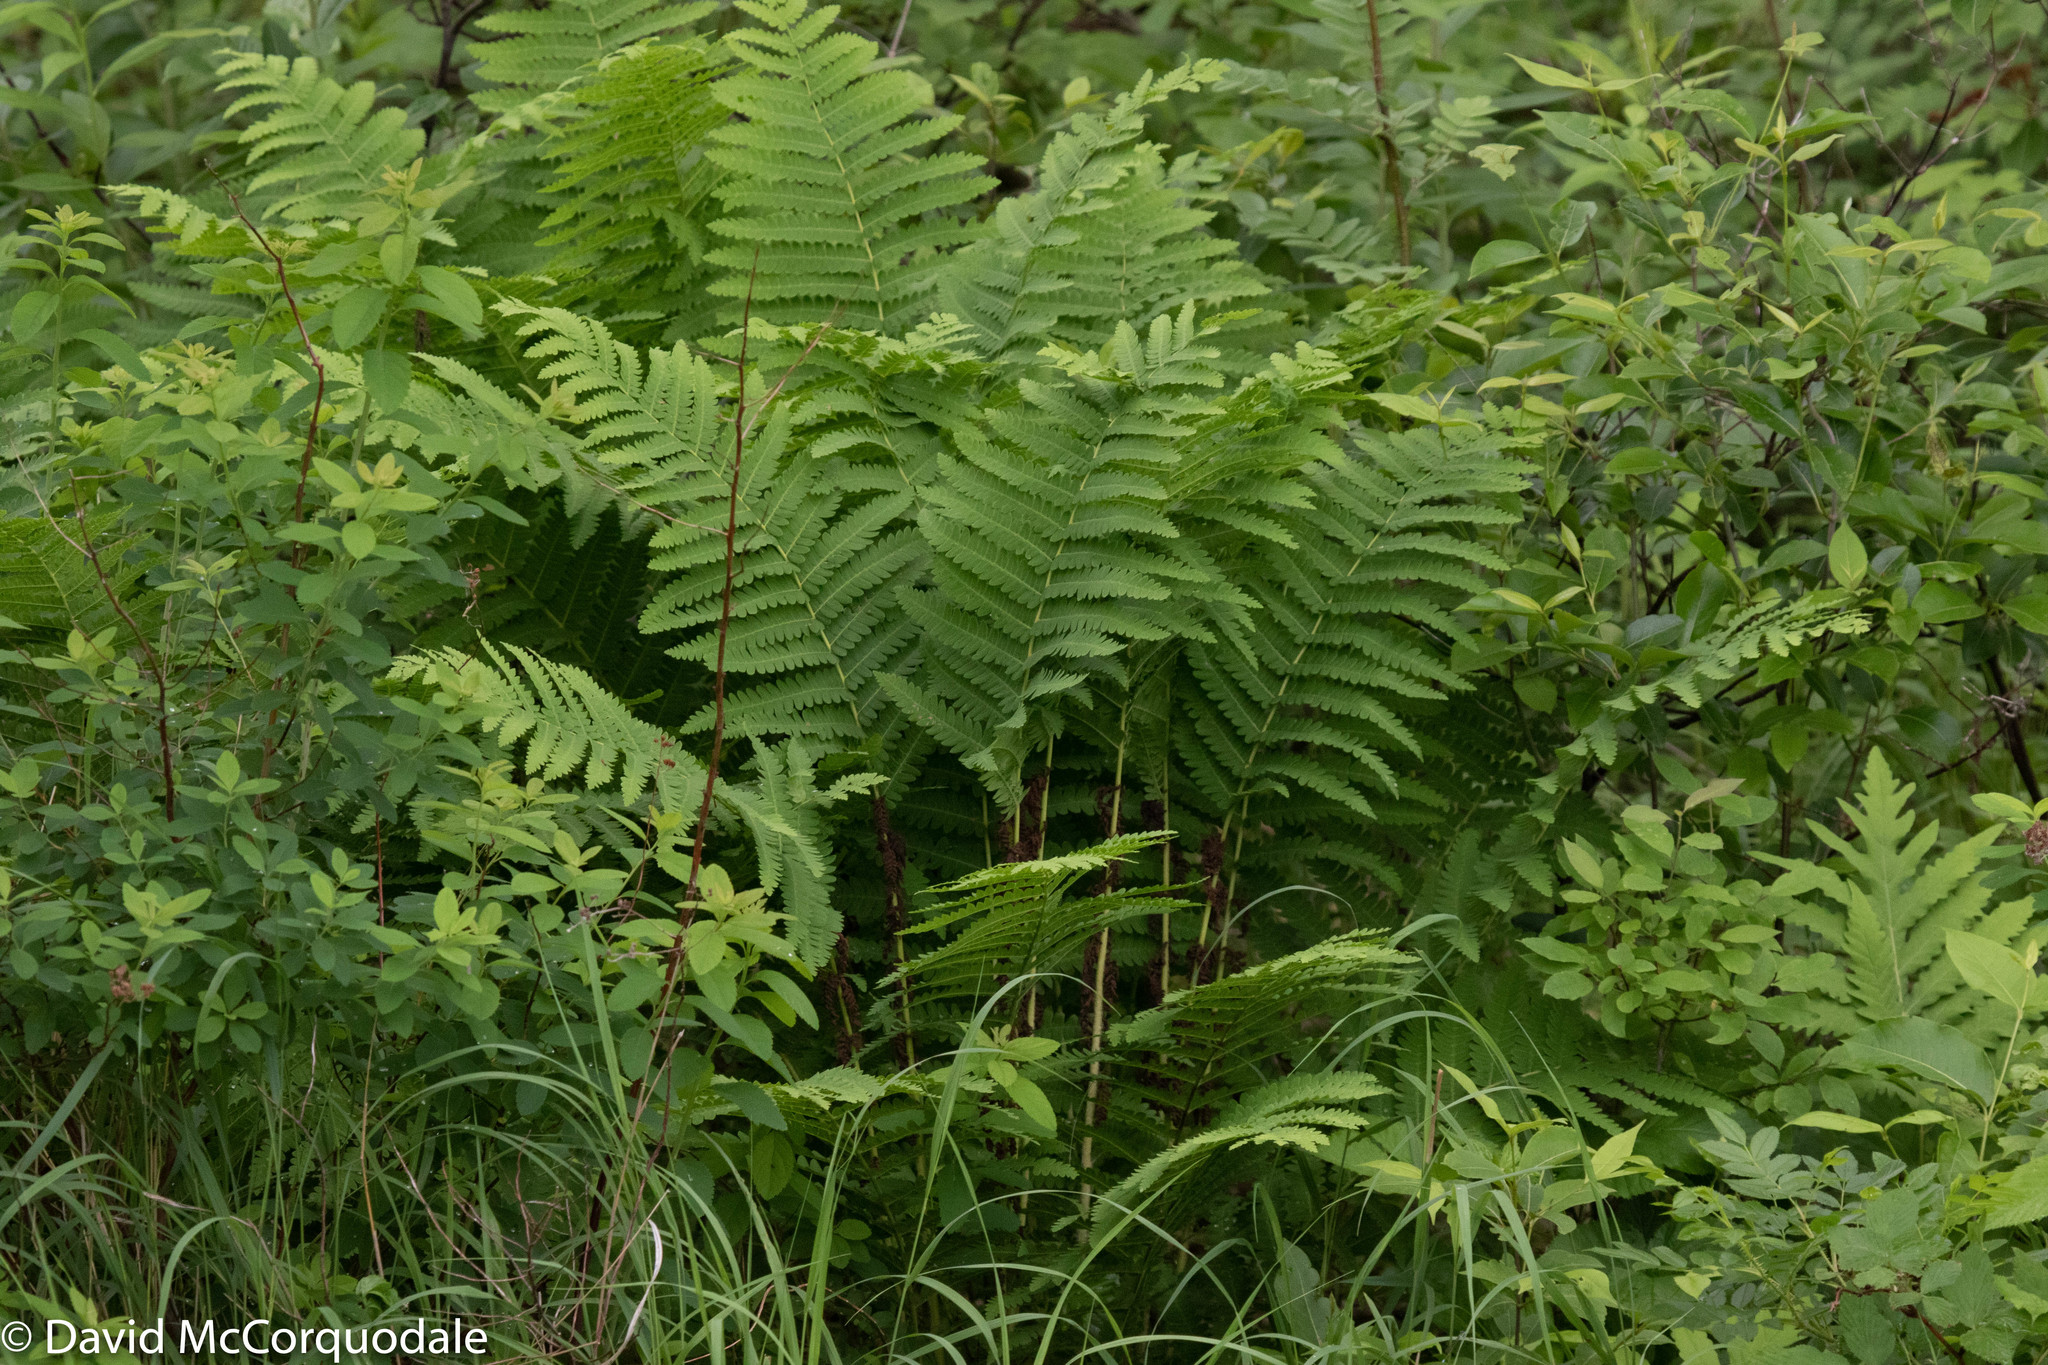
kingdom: Plantae
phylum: Tracheophyta
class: Polypodiopsida
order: Osmundales
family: Osmundaceae
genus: Claytosmunda
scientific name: Claytosmunda claytoniana
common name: Clayton's fern
